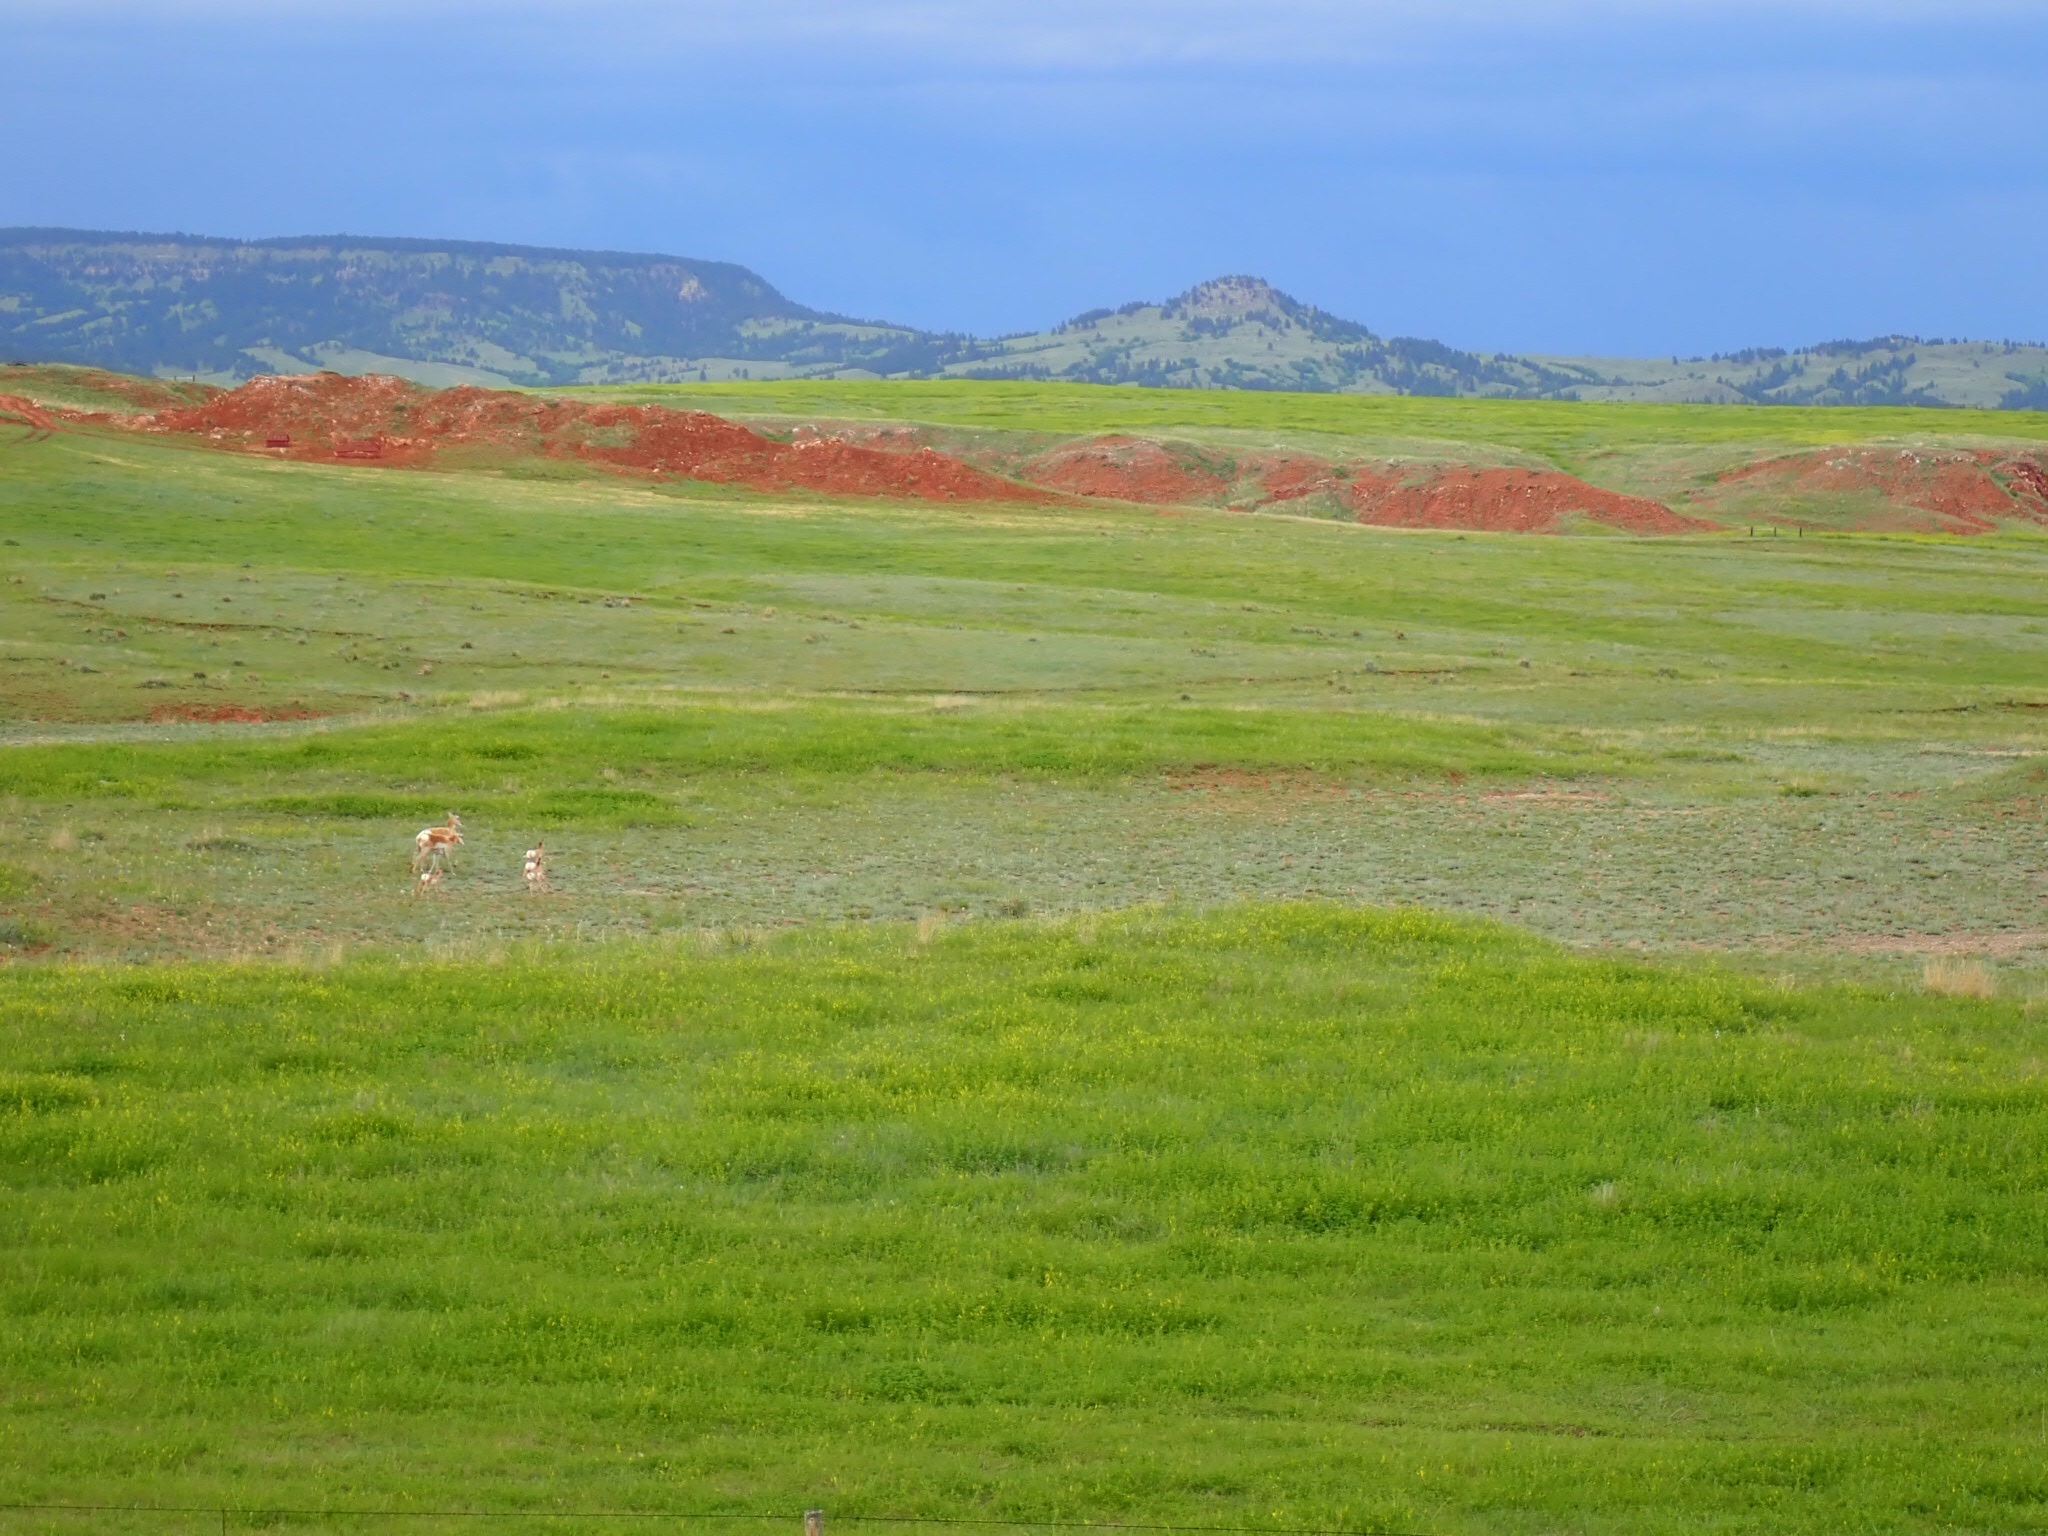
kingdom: Animalia
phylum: Chordata
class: Mammalia
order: Artiodactyla
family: Antilocapridae
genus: Antilocapra
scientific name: Antilocapra americana
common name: Pronghorn
